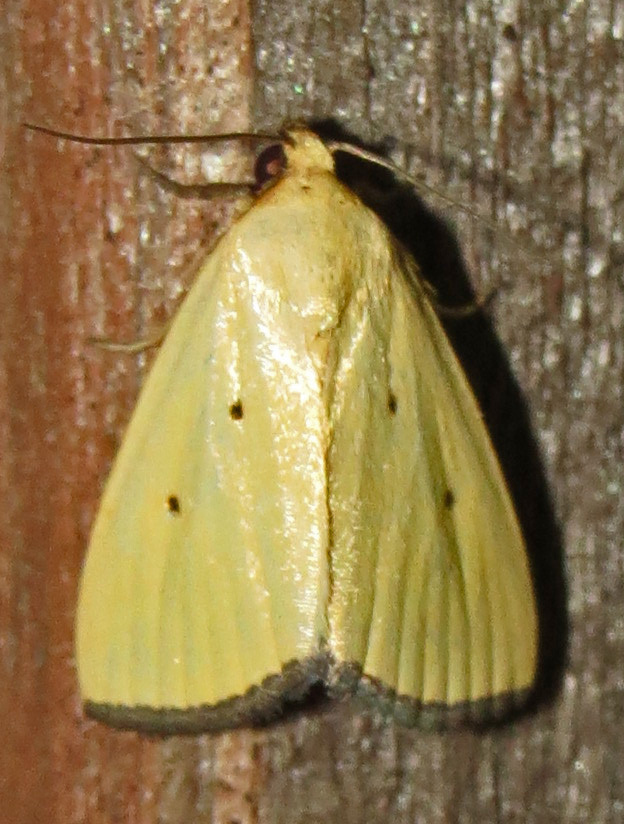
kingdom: Animalia
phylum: Arthropoda
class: Insecta
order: Lepidoptera
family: Noctuidae
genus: Marimatha
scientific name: Marimatha nigrofimbria
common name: Black-bordered lemon moth
